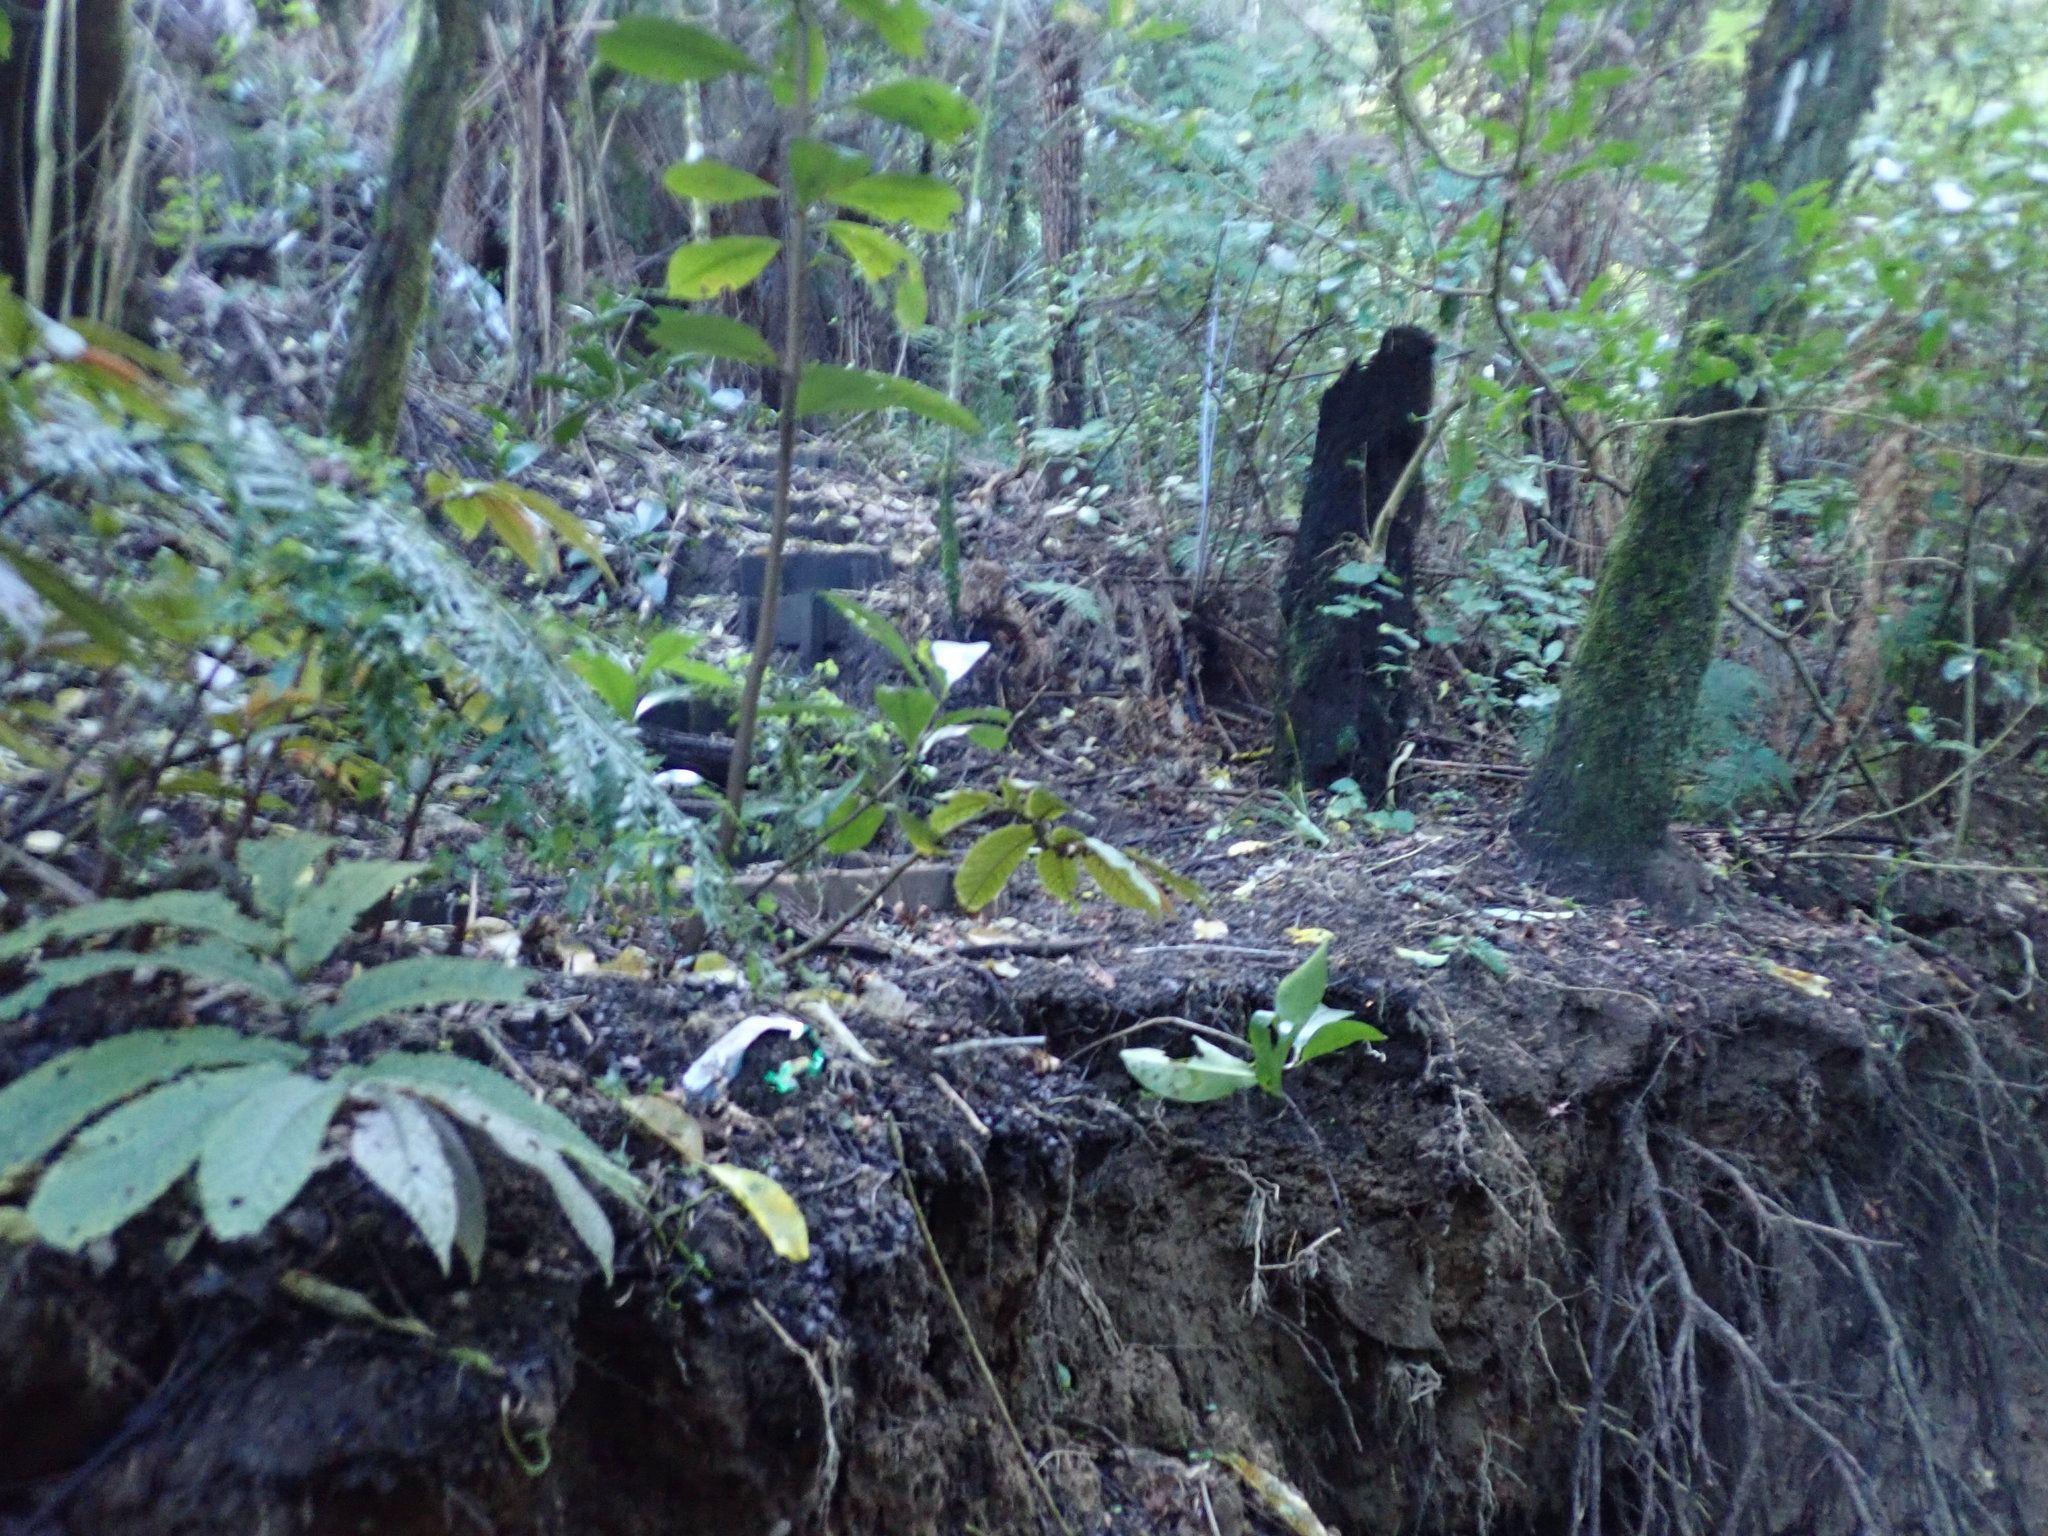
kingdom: Plantae
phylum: Tracheophyta
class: Magnoliopsida
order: Rosales
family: Urticaceae
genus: Elatostema
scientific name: Elatostema rugosum
